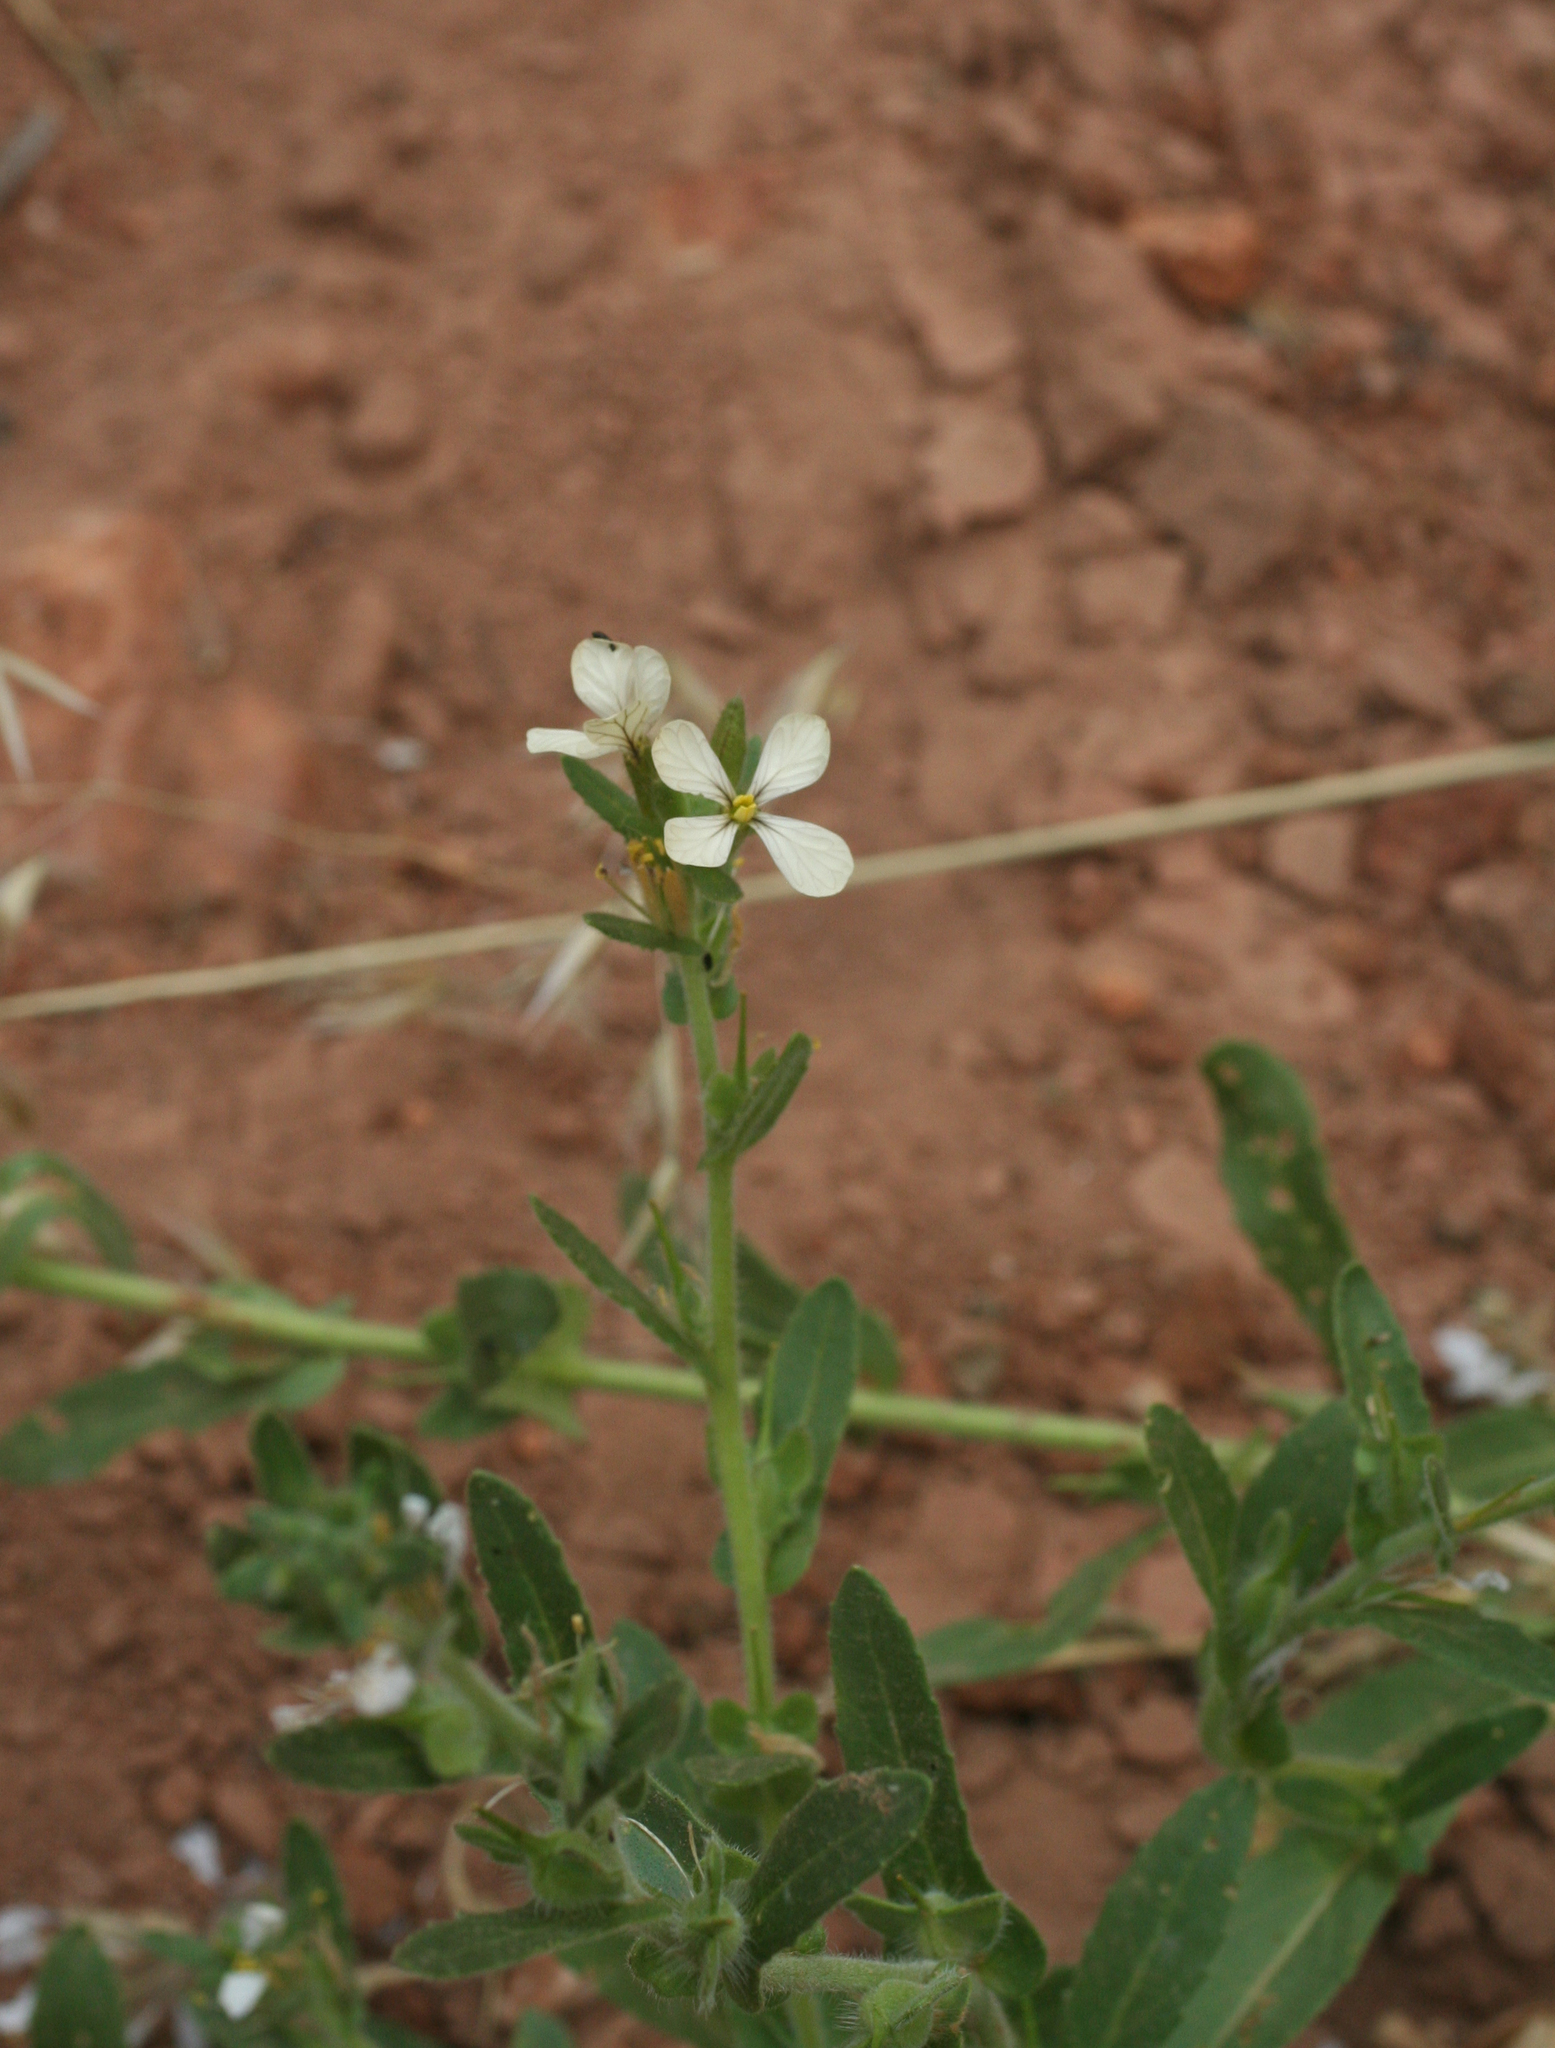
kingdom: Plantae
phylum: Tracheophyta
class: Magnoliopsida
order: Brassicales
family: Brassicaceae
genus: Psychine
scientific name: Psychine stylosa
